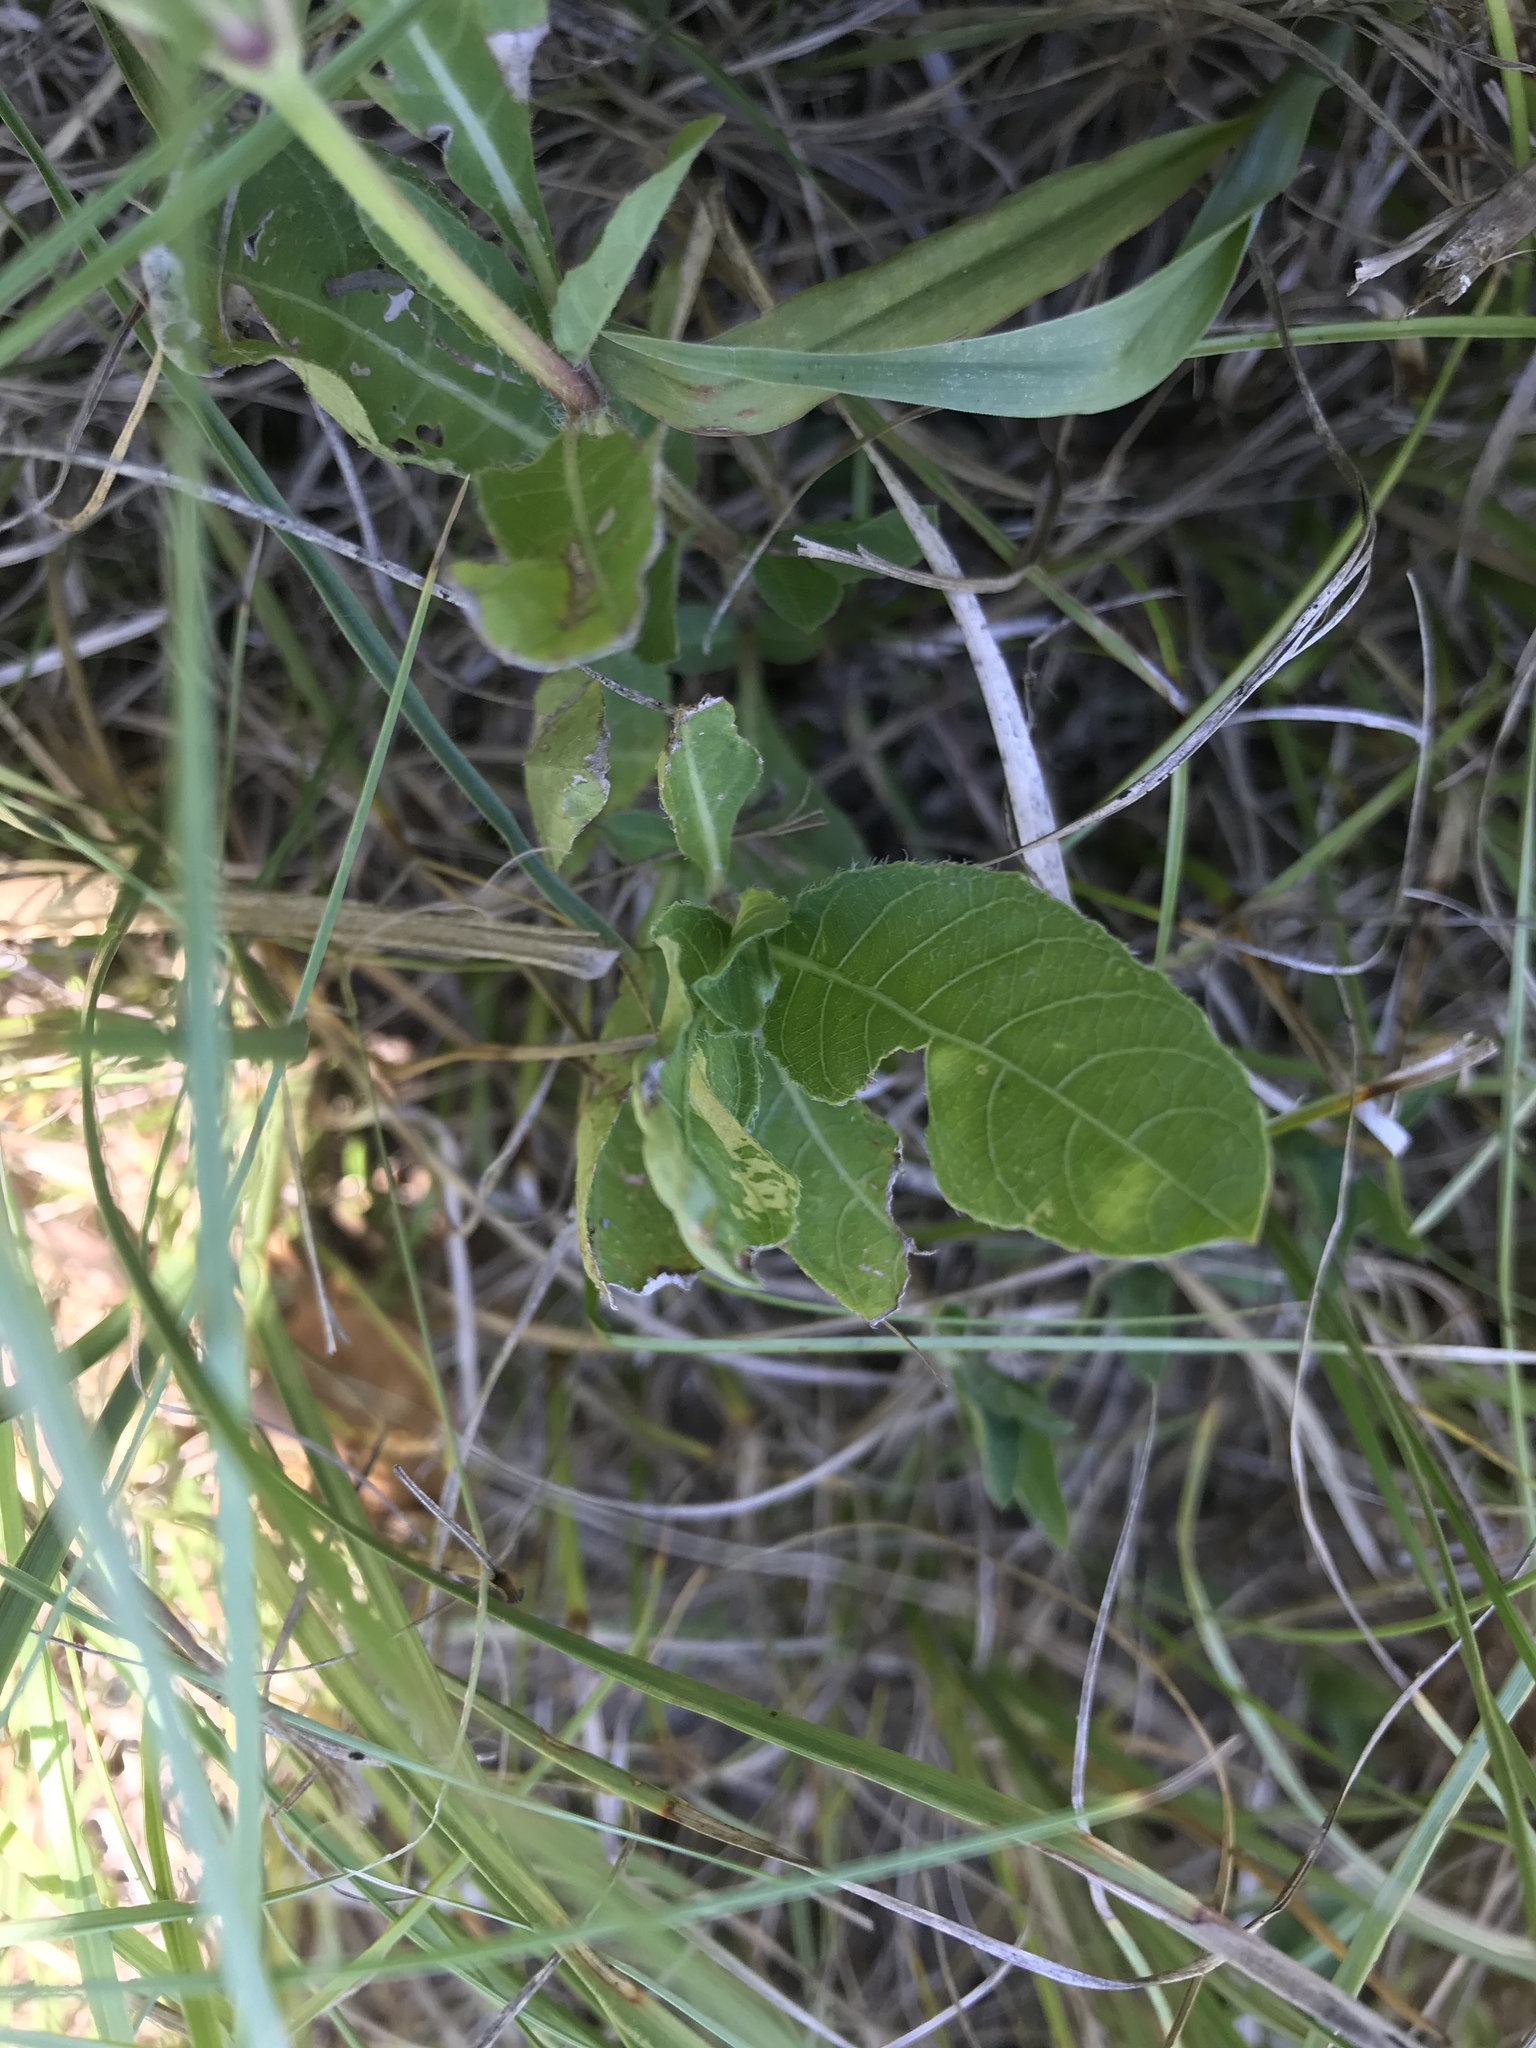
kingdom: Plantae
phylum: Tracheophyta
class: Magnoliopsida
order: Lamiales
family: Acanthaceae
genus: Ruellia
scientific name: Ruellia ciliatiflora
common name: Hairyflower wild petunia
